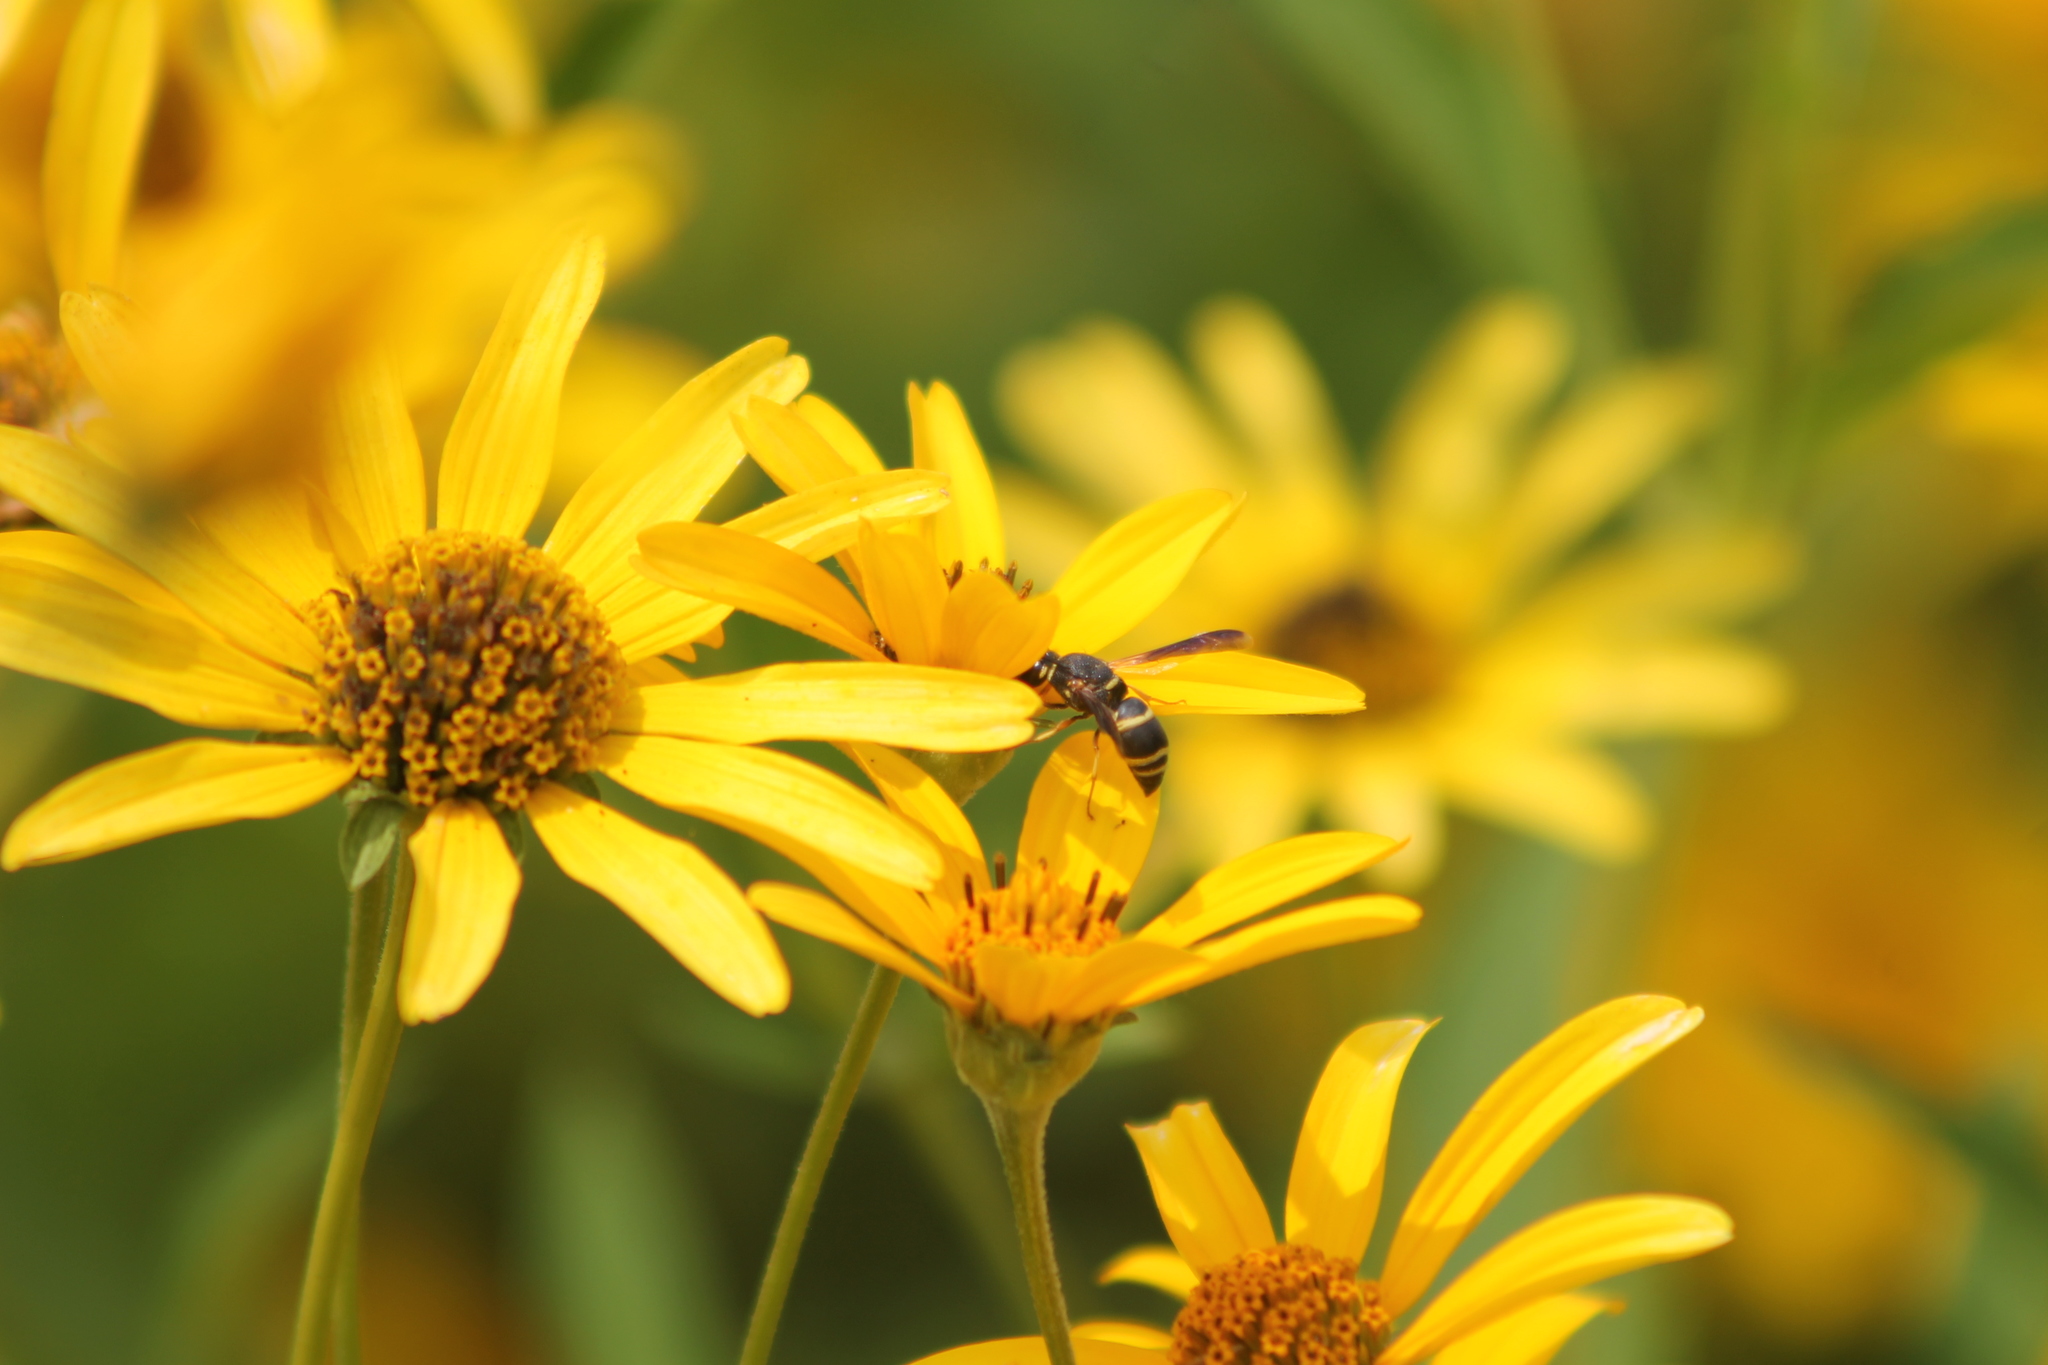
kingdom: Animalia
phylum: Arthropoda
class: Insecta
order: Hymenoptera
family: Eumenidae
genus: Euodynerus
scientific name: Euodynerus hidalgo
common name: Wasp
